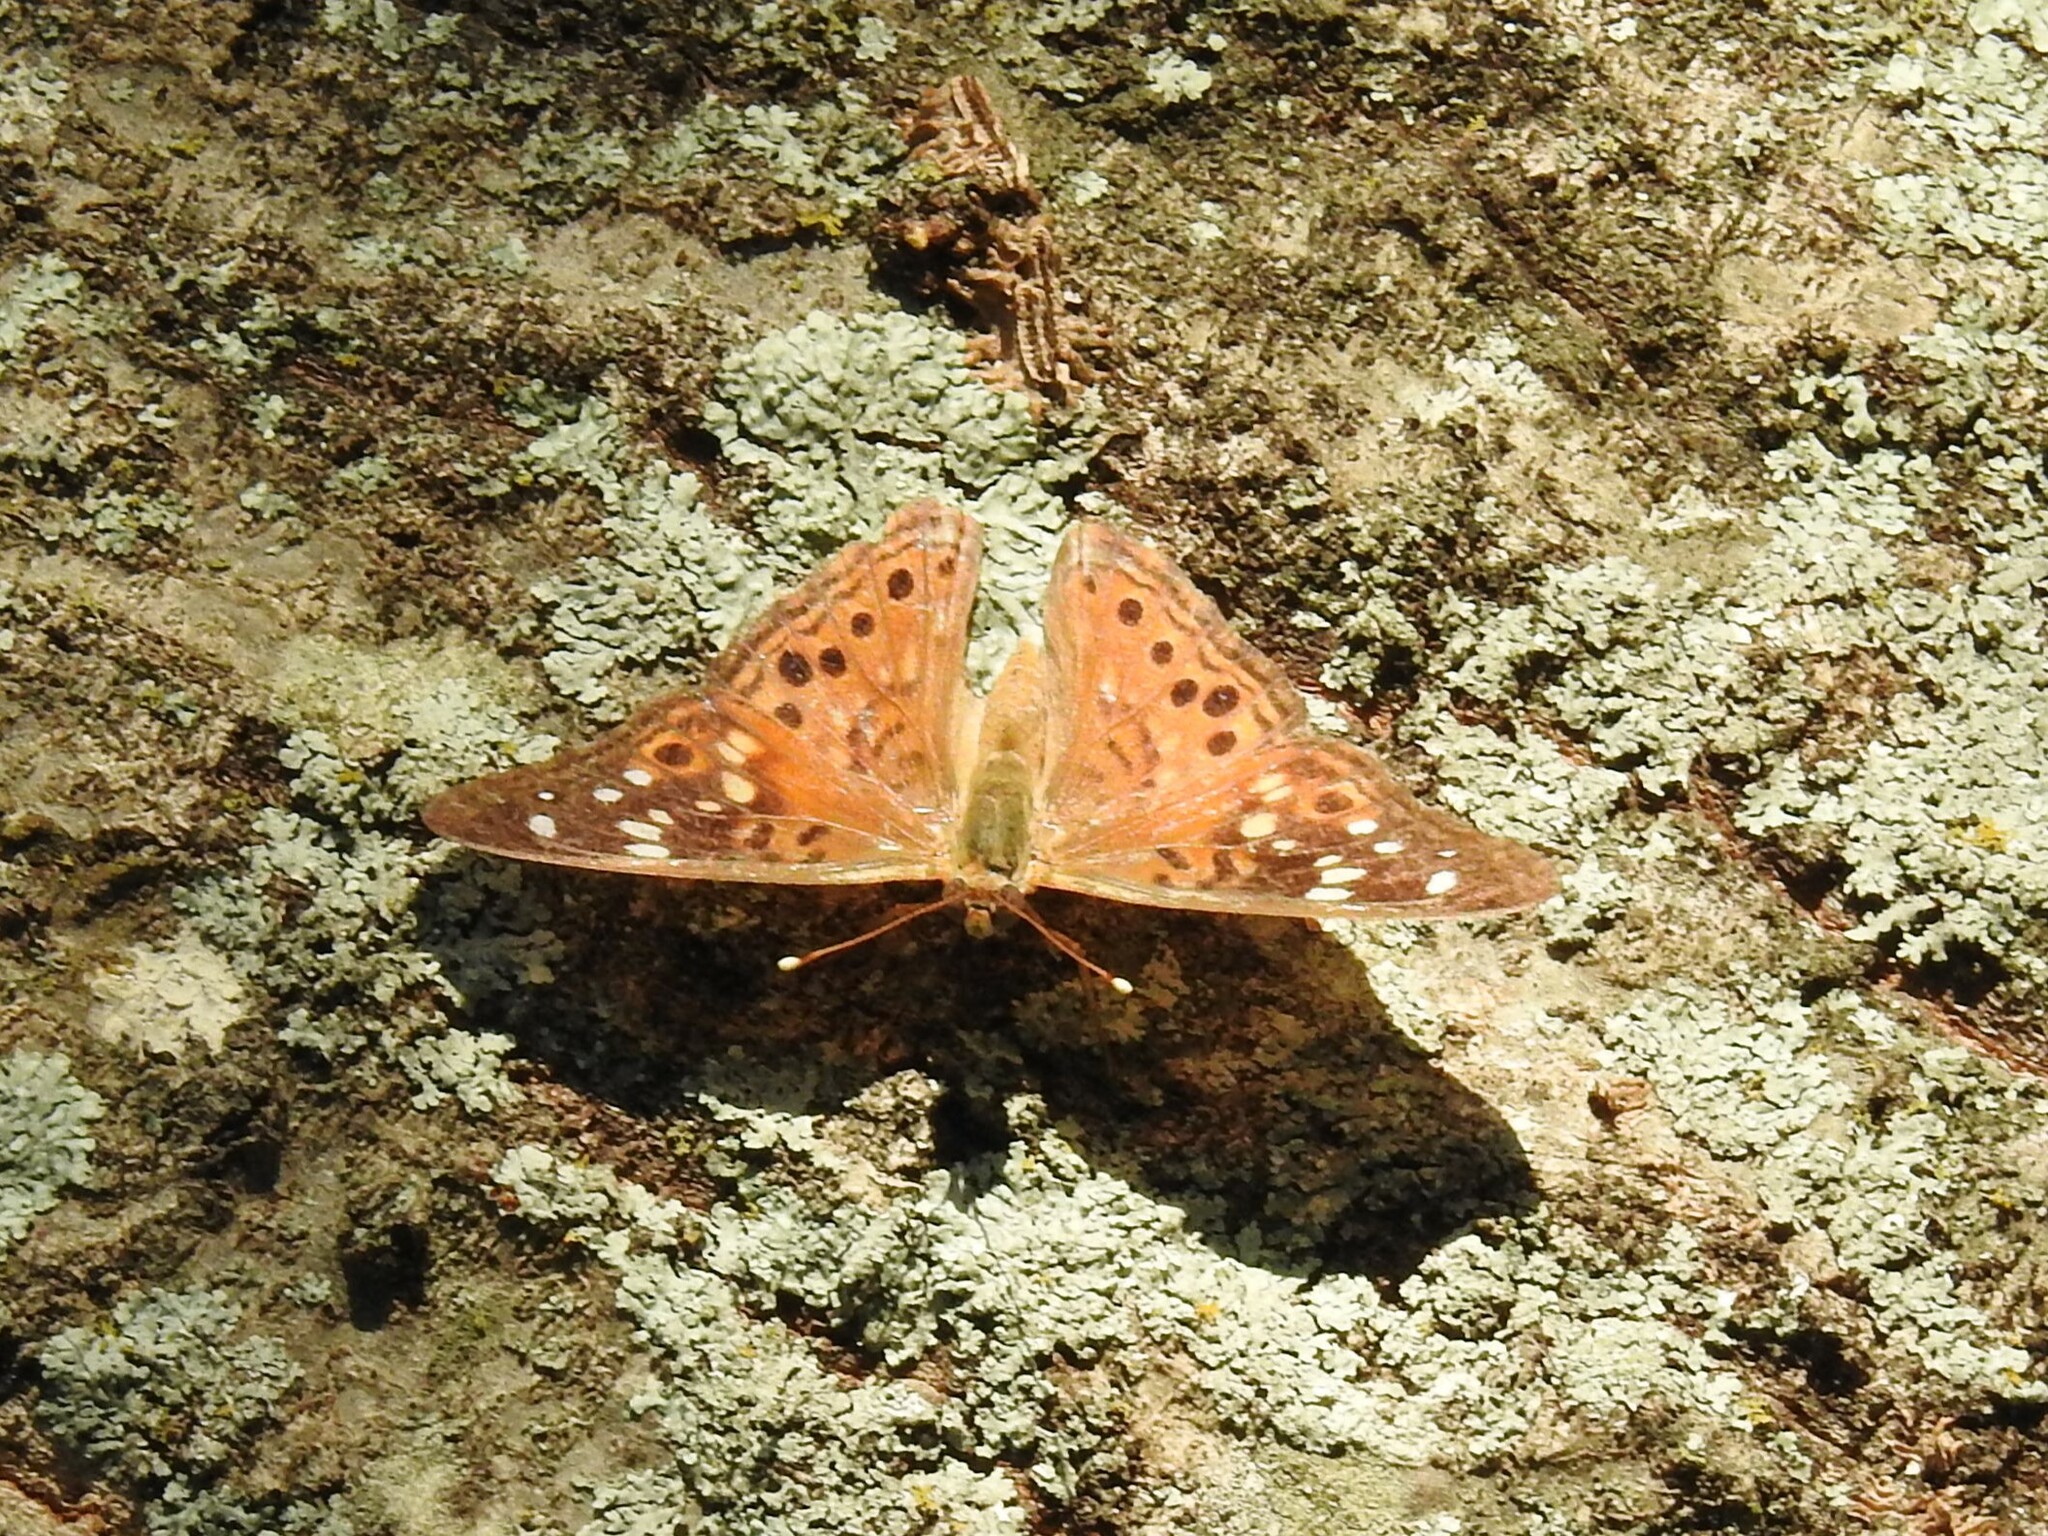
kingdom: Animalia
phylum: Arthropoda
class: Insecta
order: Lepidoptera
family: Nymphalidae
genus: Asterocampa
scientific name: Asterocampa celtis
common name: Hackberry emperor
